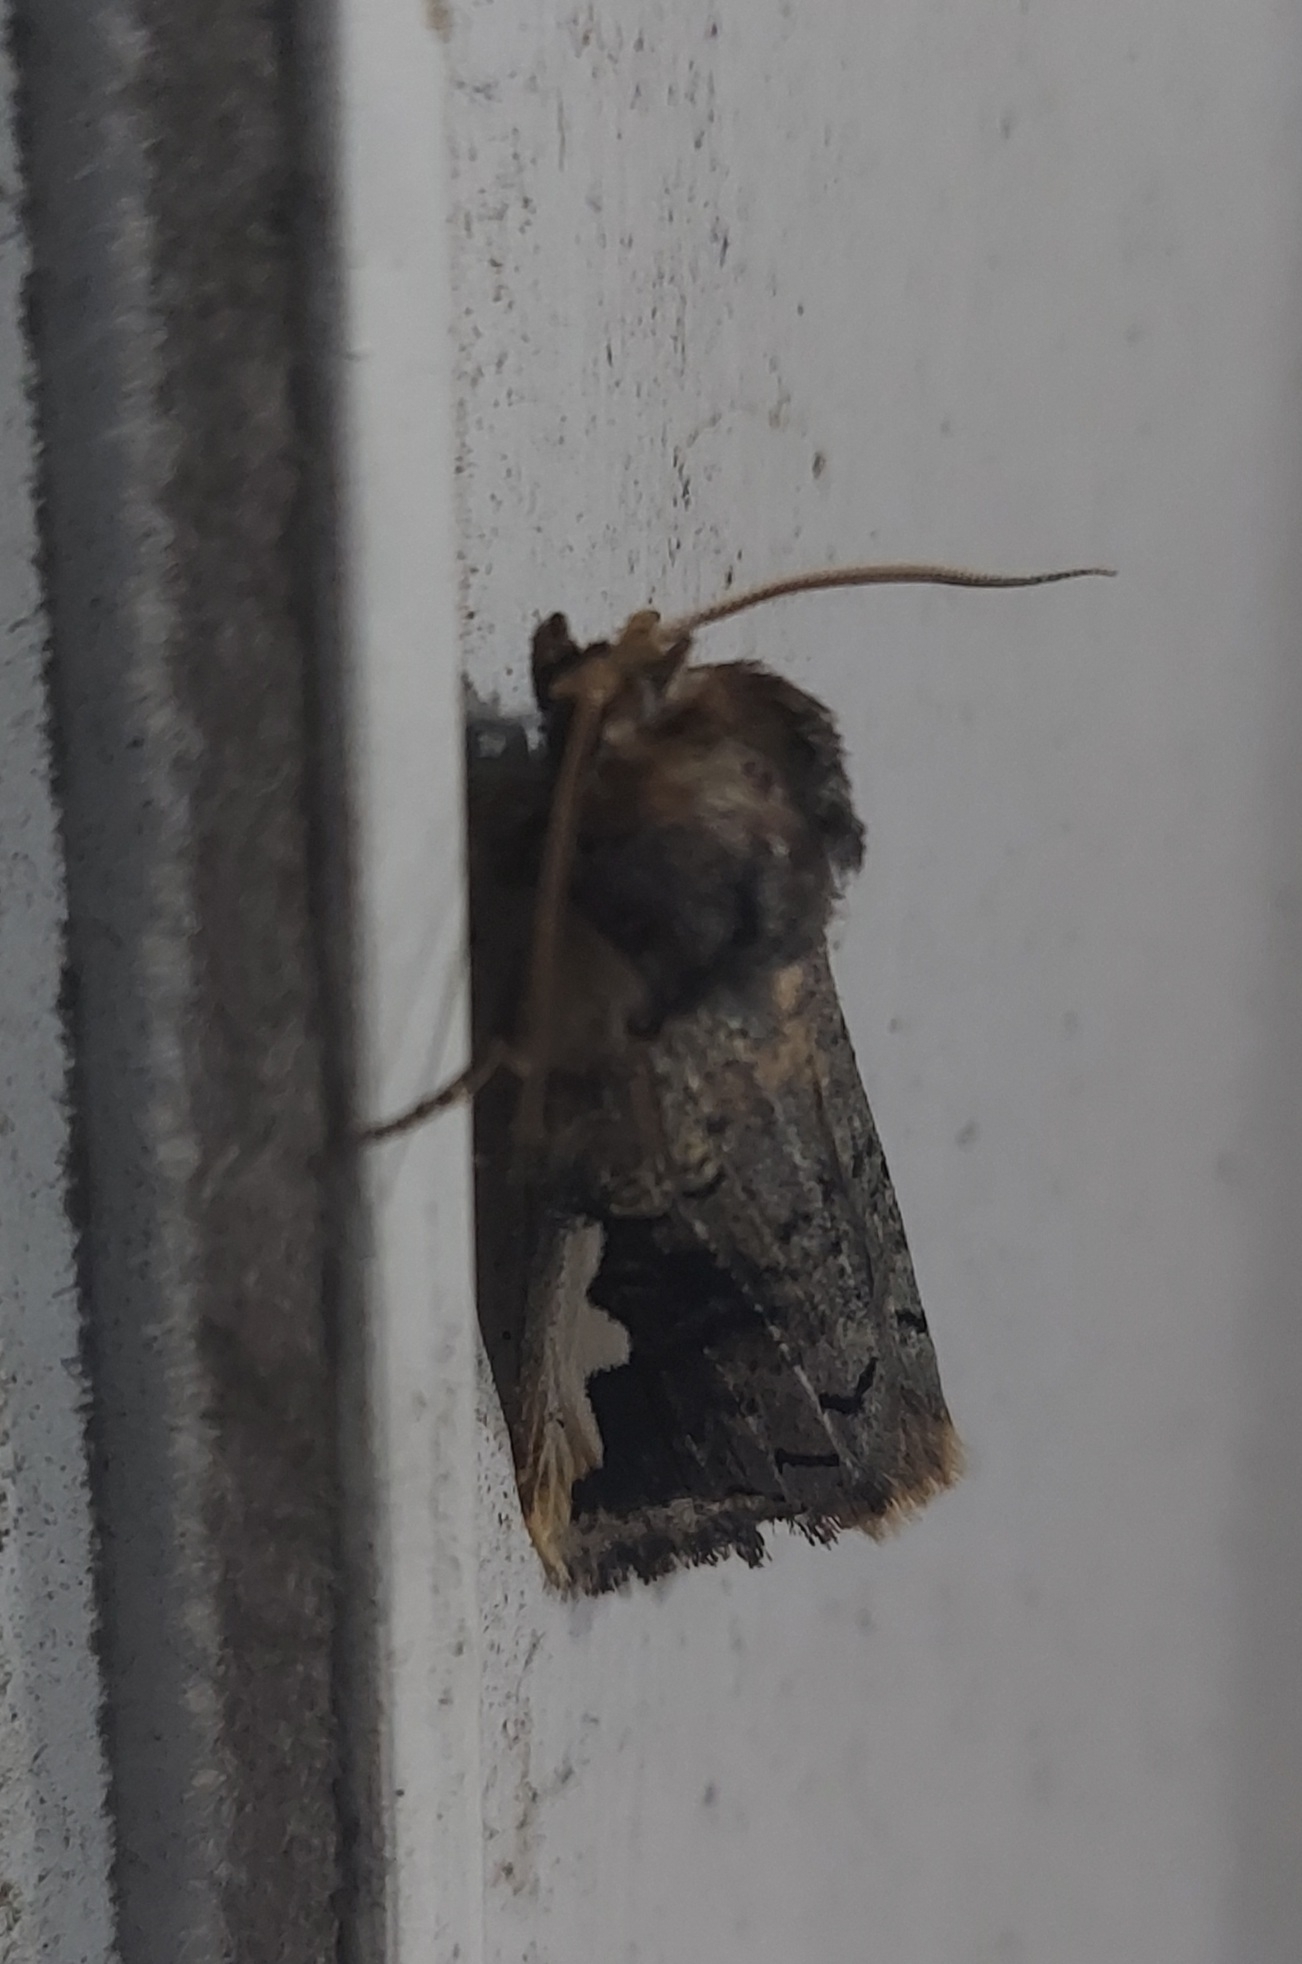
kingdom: Animalia
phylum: Arthropoda
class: Insecta
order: Lepidoptera
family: Notodontidae
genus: Symmerista
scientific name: Symmerista albifrons
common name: White-headed prominent
